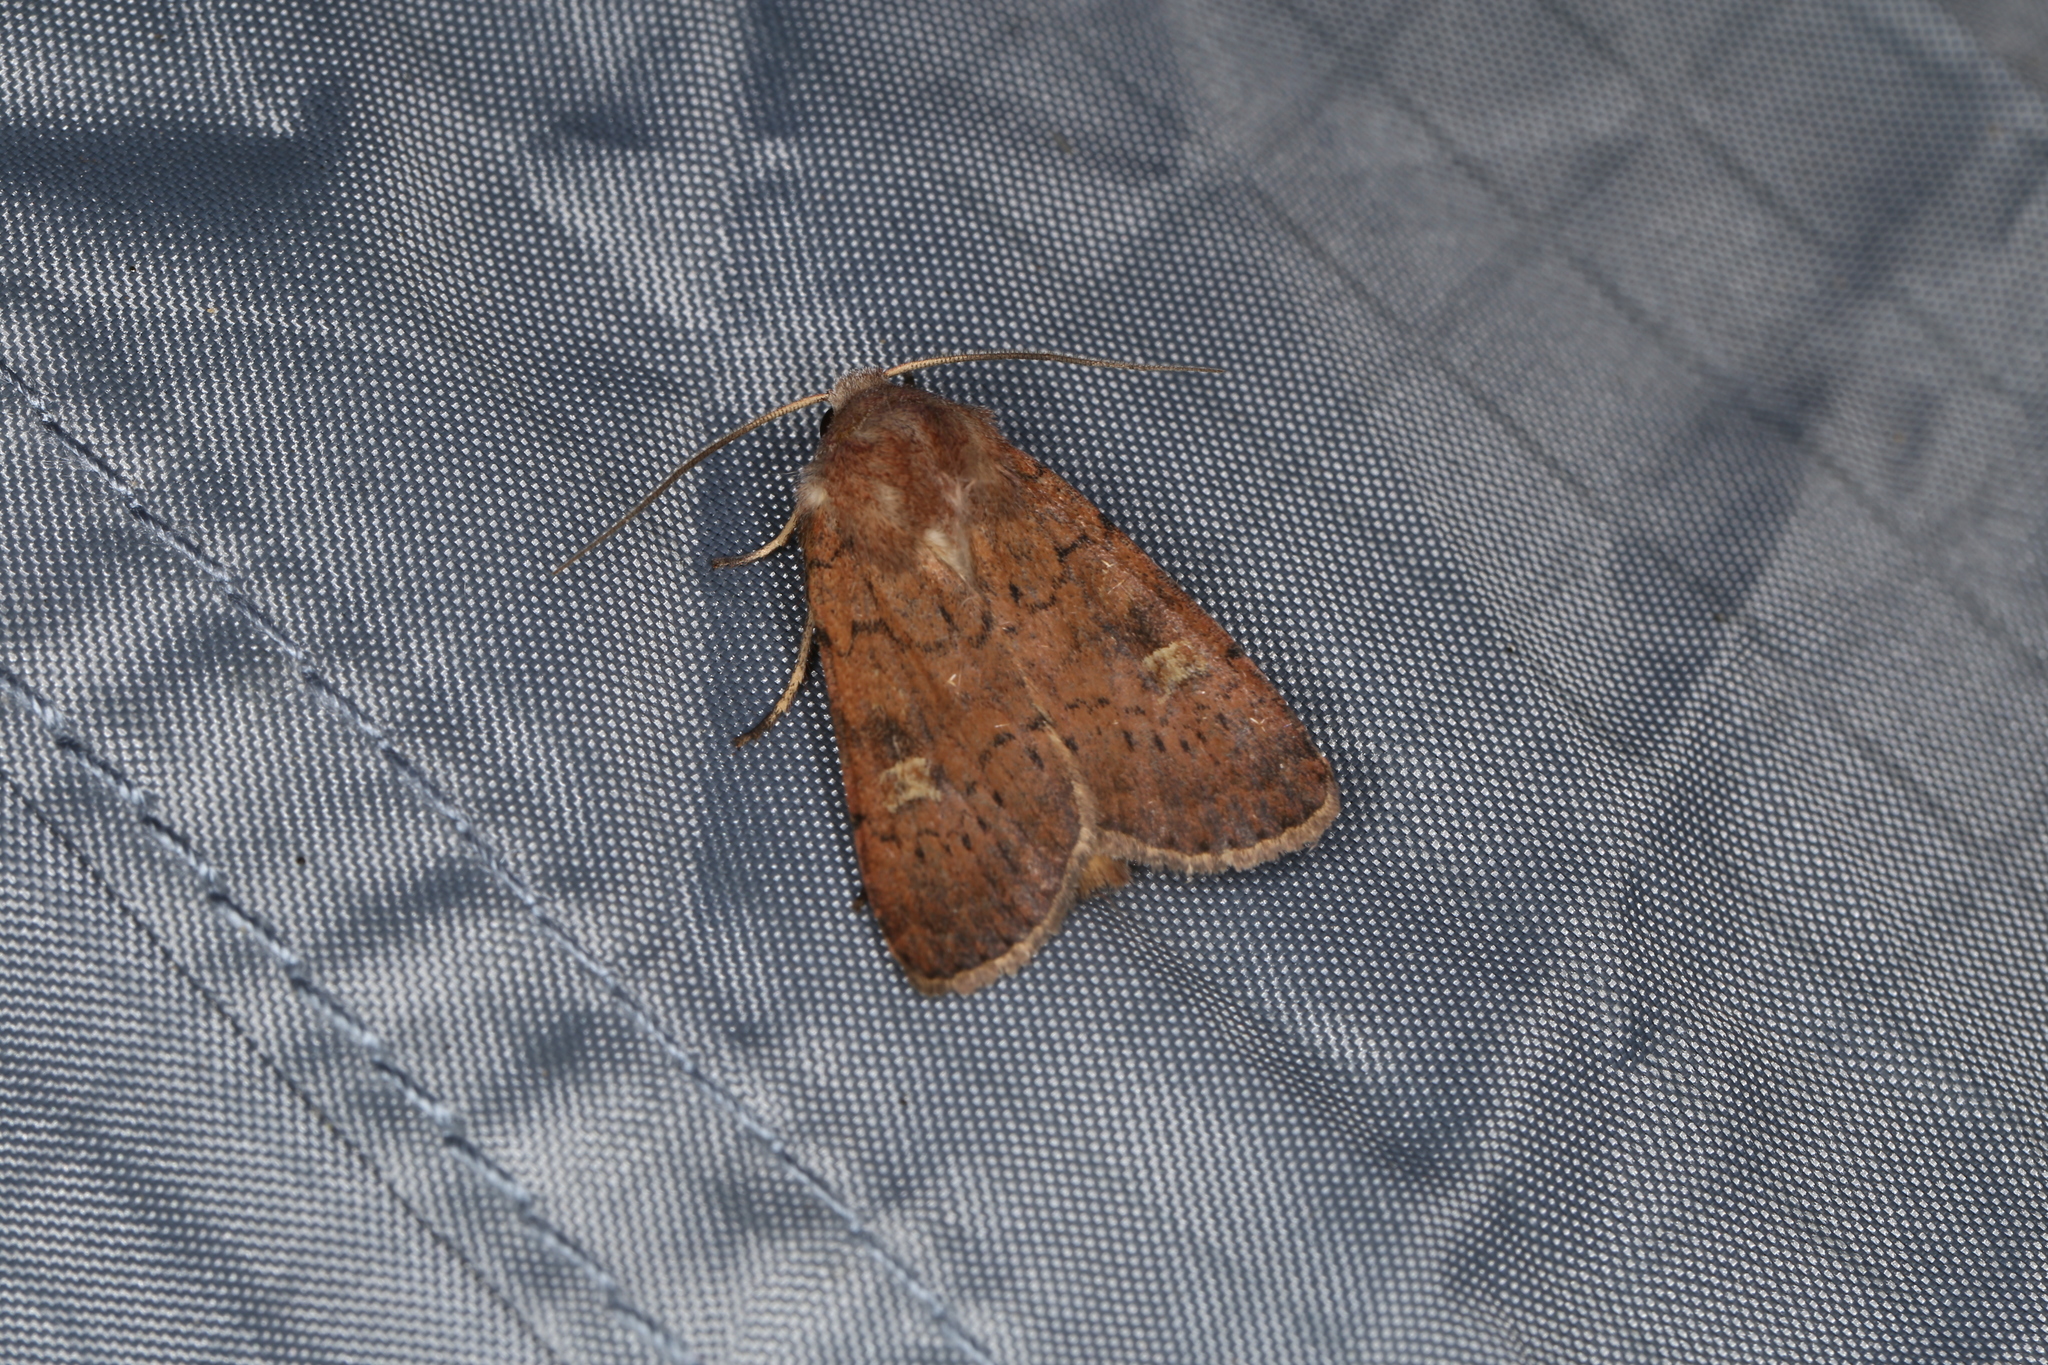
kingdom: Animalia
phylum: Arthropoda
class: Insecta
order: Lepidoptera
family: Noctuidae
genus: Xestia
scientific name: Xestia xanthographa
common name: Square-spot rustic
